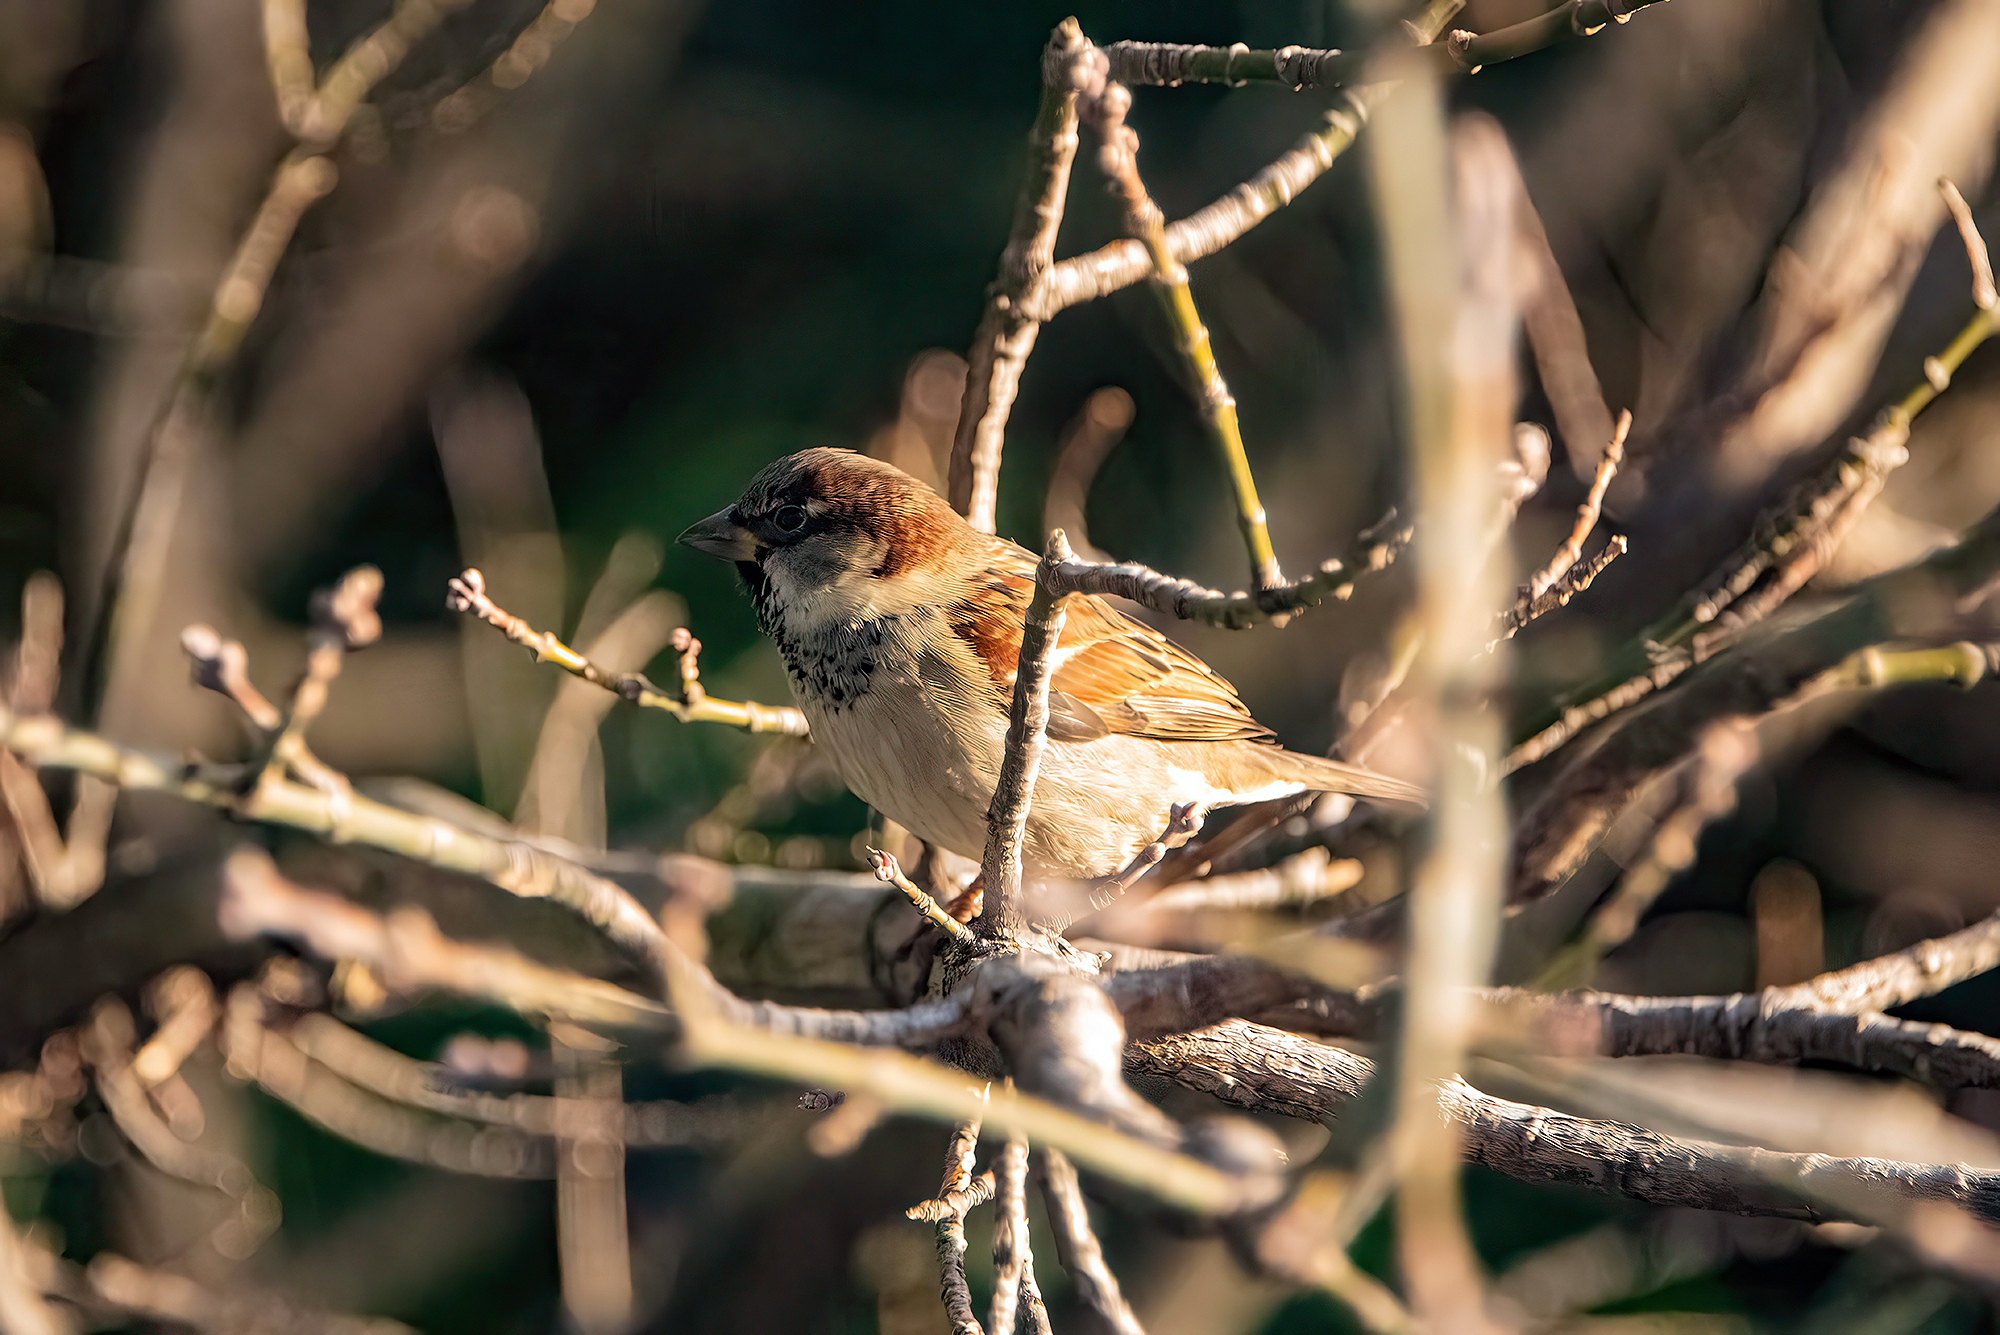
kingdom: Animalia
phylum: Chordata
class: Aves
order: Passeriformes
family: Passeridae
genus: Passer
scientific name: Passer domesticus
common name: House sparrow
